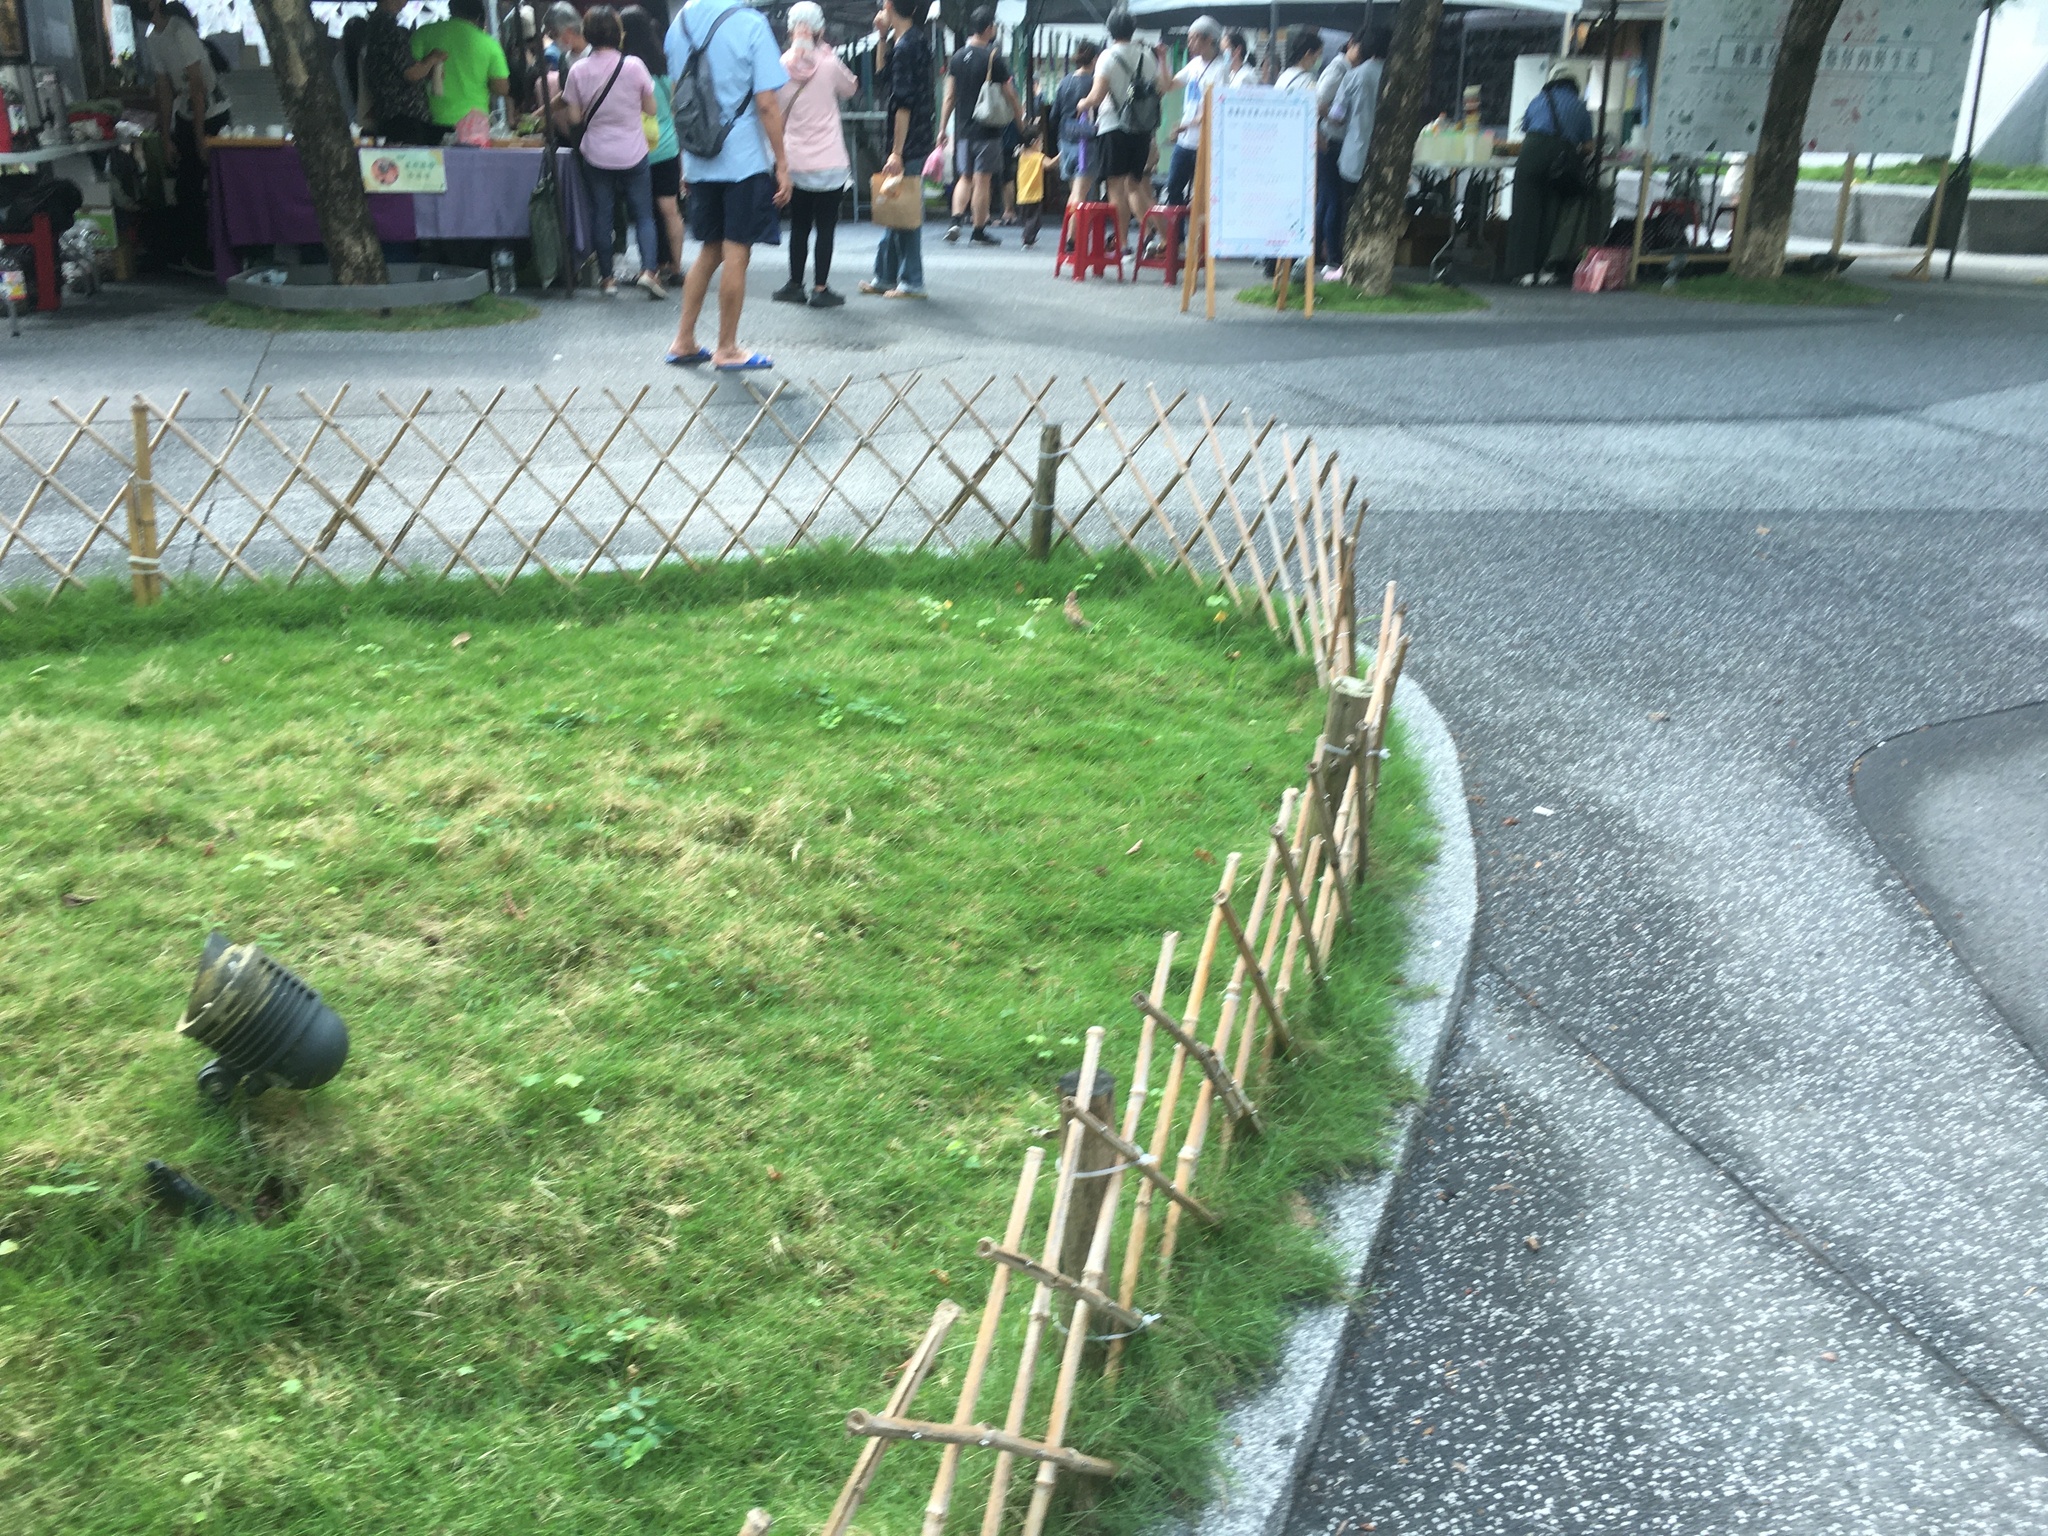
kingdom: Animalia
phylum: Chordata
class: Aves
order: Passeriformes
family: Passeridae
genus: Passer
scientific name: Passer montanus
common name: Eurasian tree sparrow
